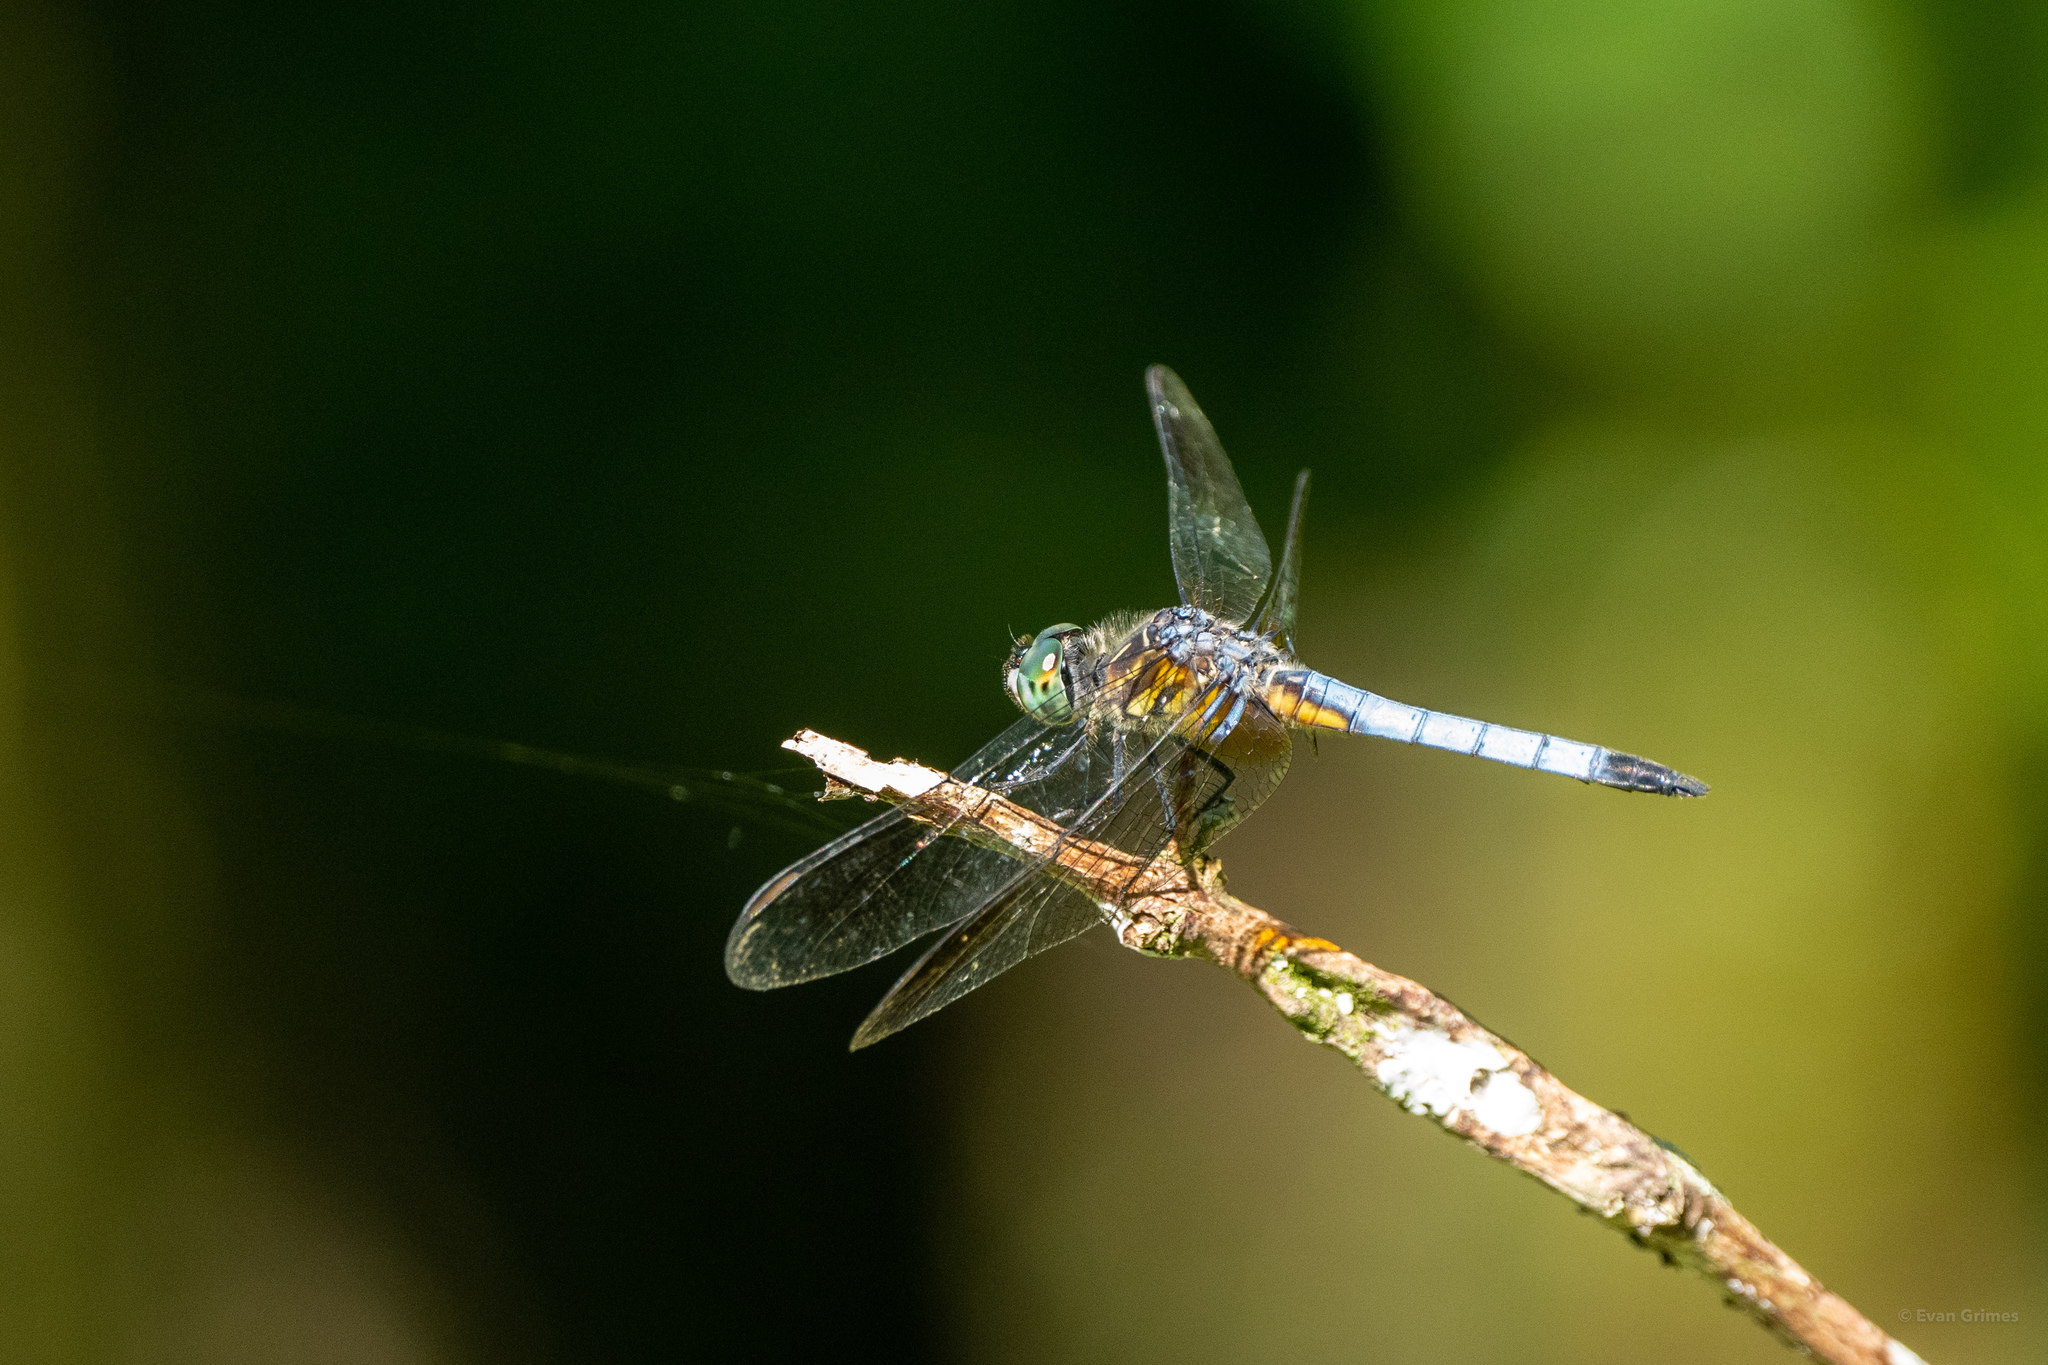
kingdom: Animalia
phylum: Arthropoda
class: Insecta
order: Odonata
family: Libellulidae
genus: Pachydiplax
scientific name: Pachydiplax longipennis
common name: Blue dasher
